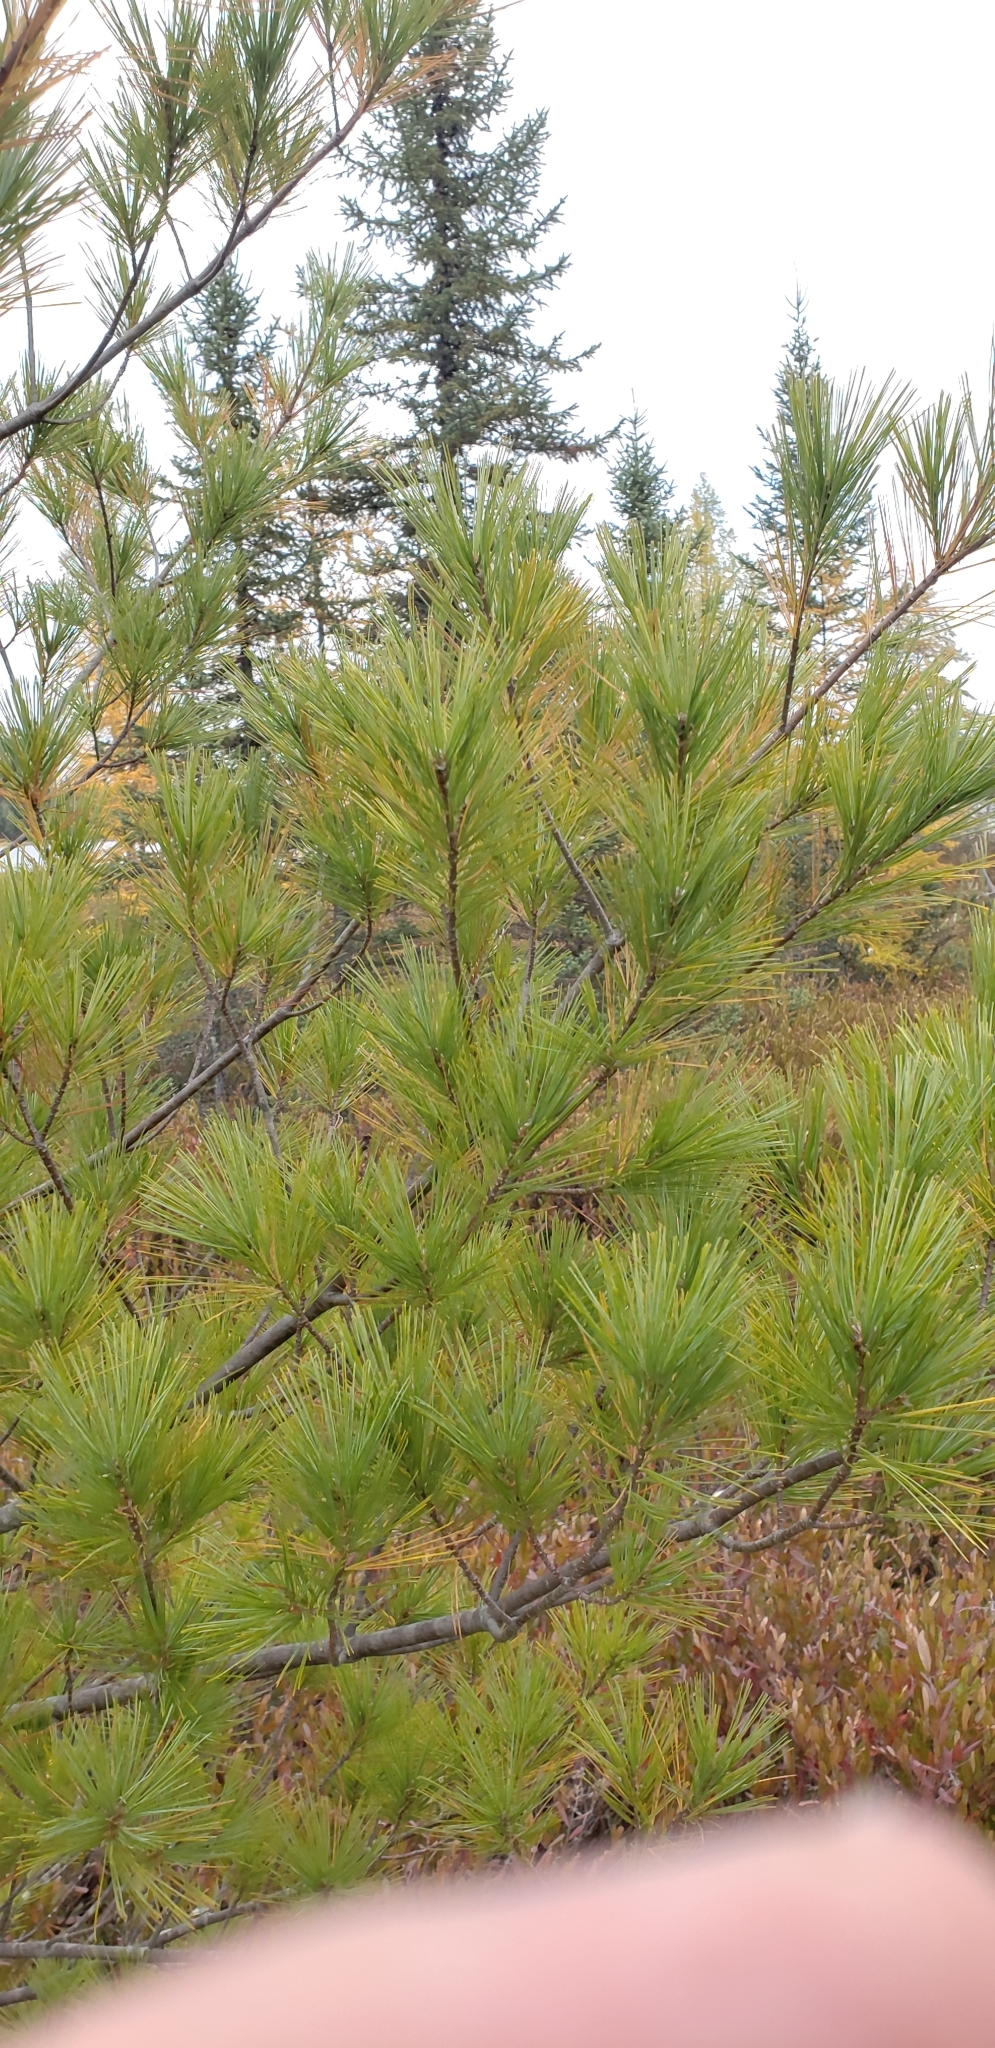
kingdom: Plantae
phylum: Tracheophyta
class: Pinopsida
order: Pinales
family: Pinaceae
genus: Pinus
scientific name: Pinus strobus
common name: Weymouth pine
